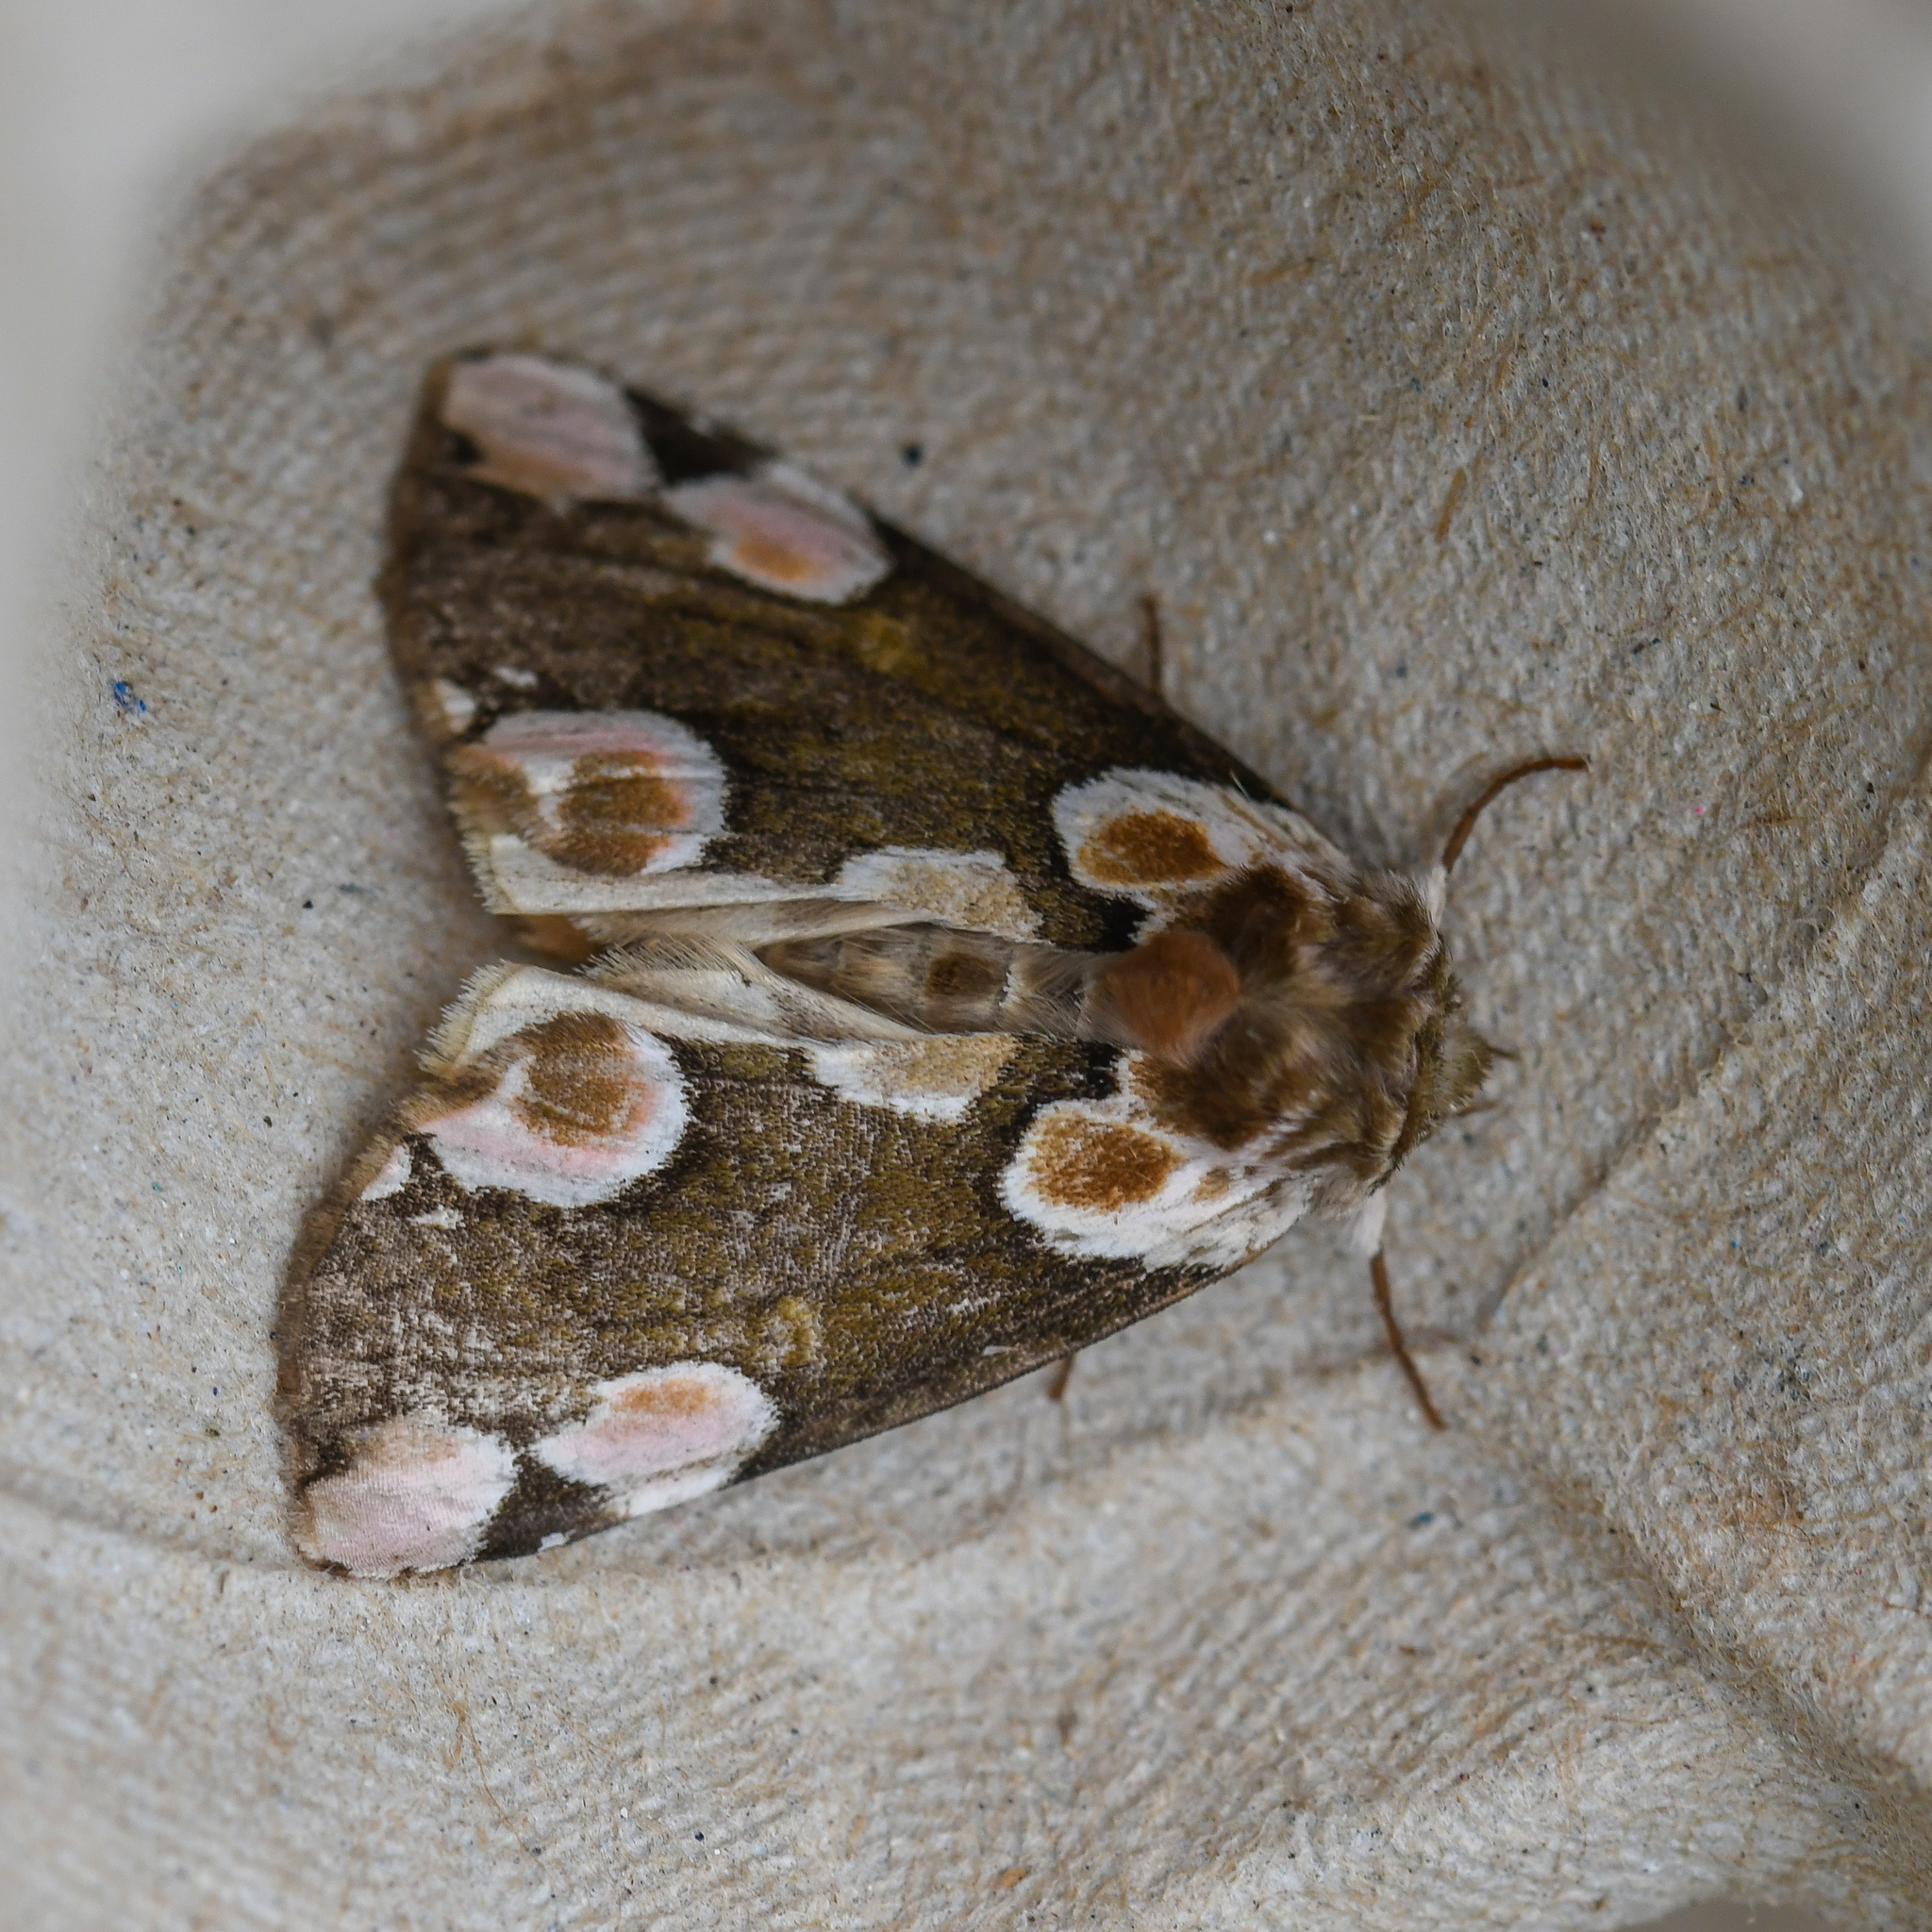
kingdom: Animalia
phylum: Arthropoda
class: Insecta
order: Lepidoptera
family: Drepanidae
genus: Thyatira
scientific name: Thyatira batis
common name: Peach blossom
